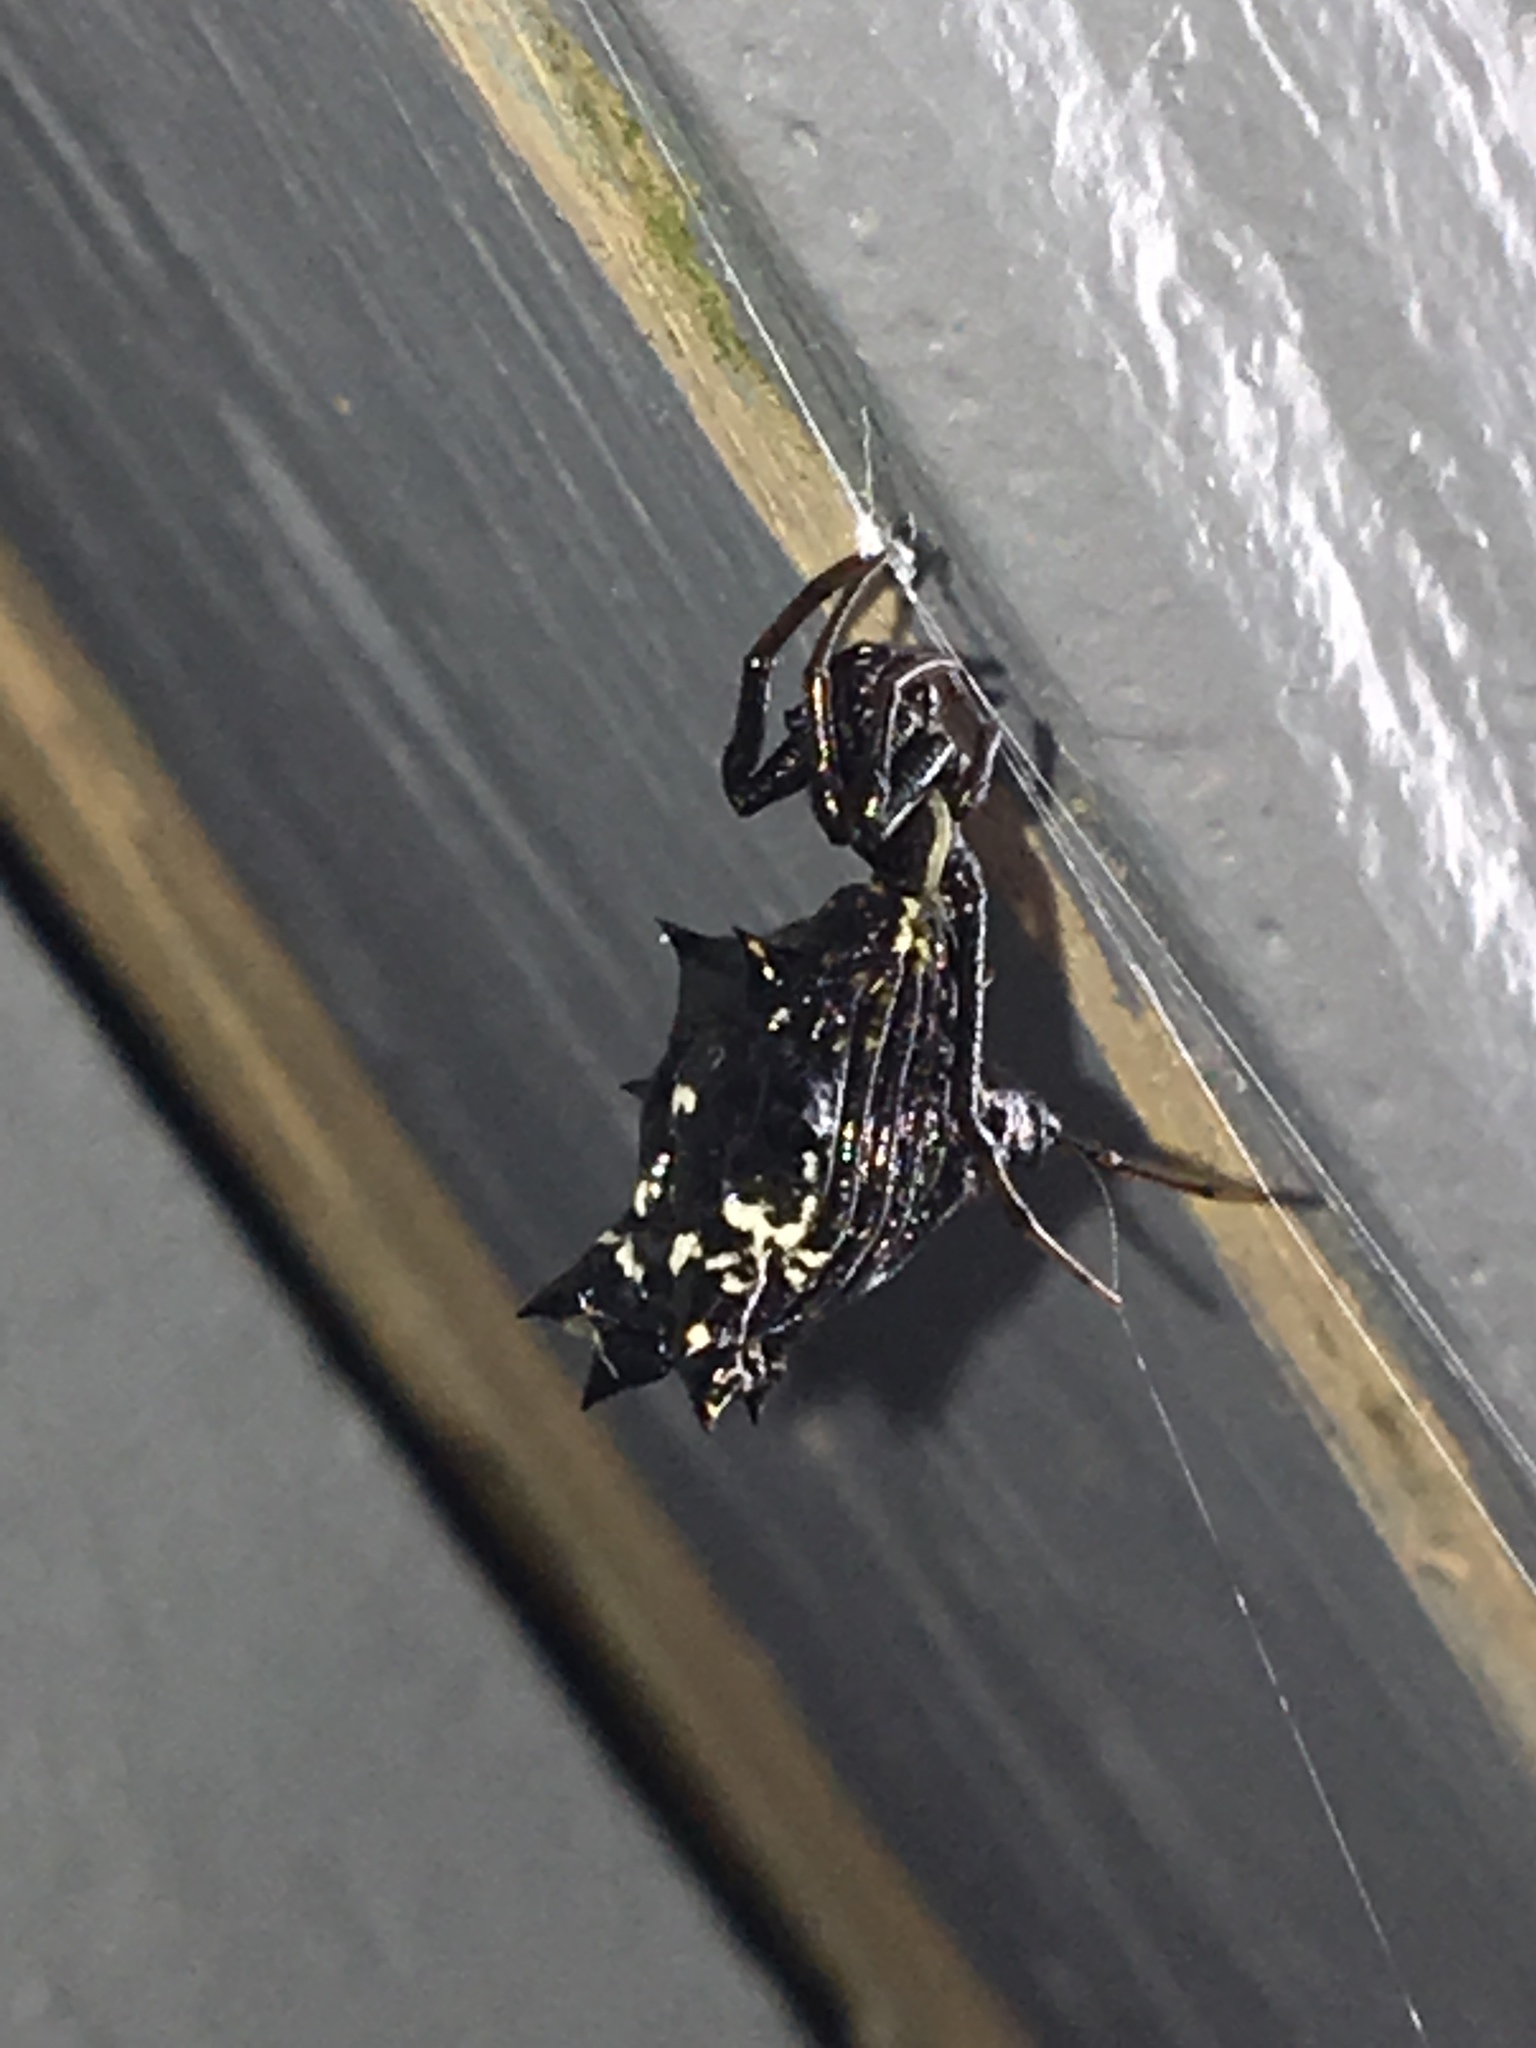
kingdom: Animalia
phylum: Arthropoda
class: Arachnida
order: Araneae
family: Araneidae
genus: Micrathena
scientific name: Micrathena gracilis
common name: Orb weavers
